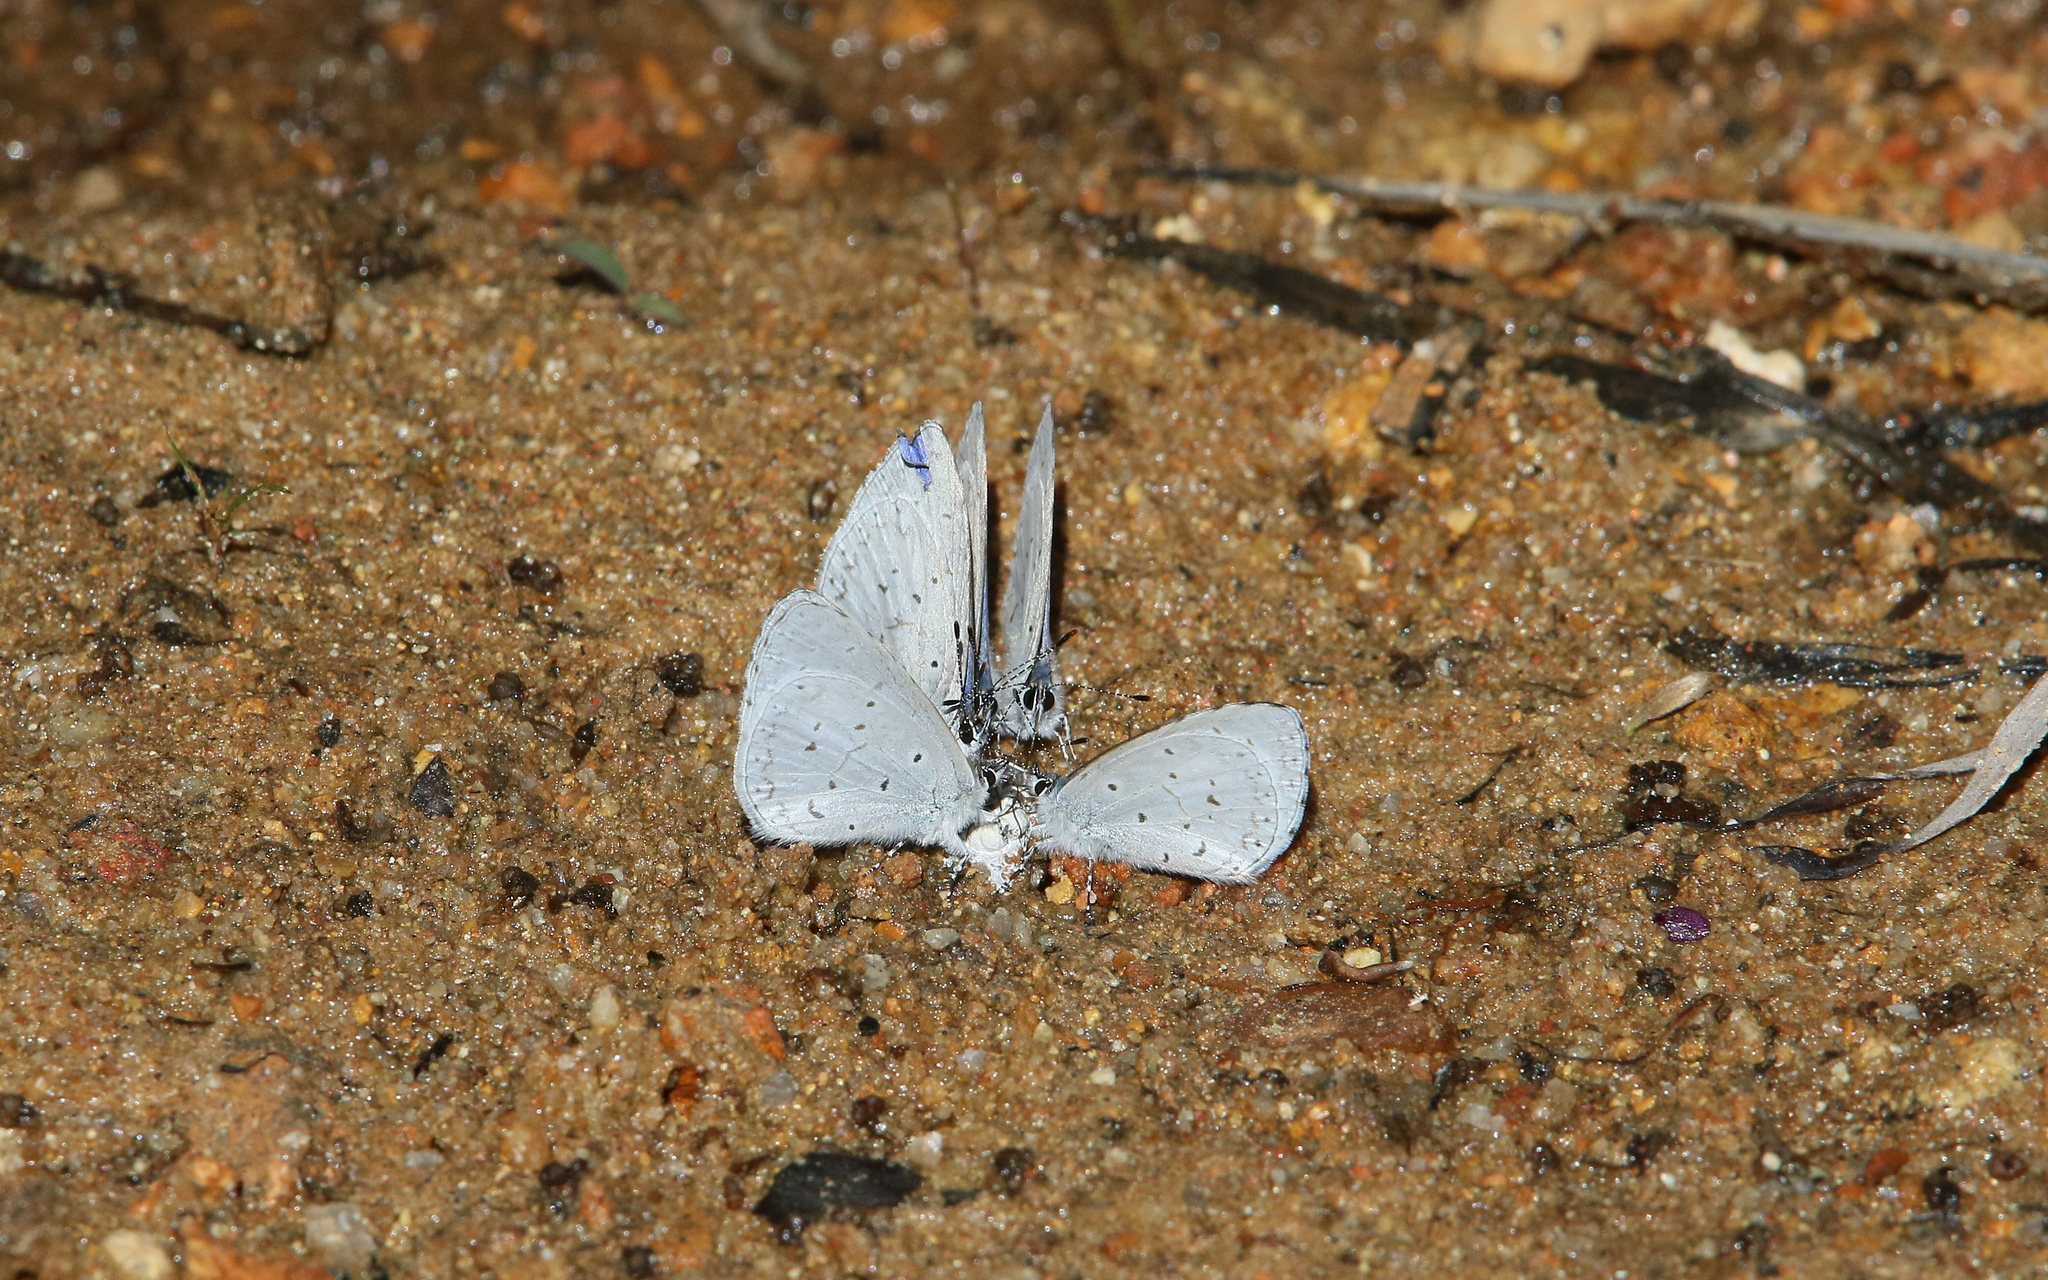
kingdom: Animalia
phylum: Arthropoda
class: Insecta
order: Lepidoptera
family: Lycaenidae
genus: Udara
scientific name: Udara dilectus
